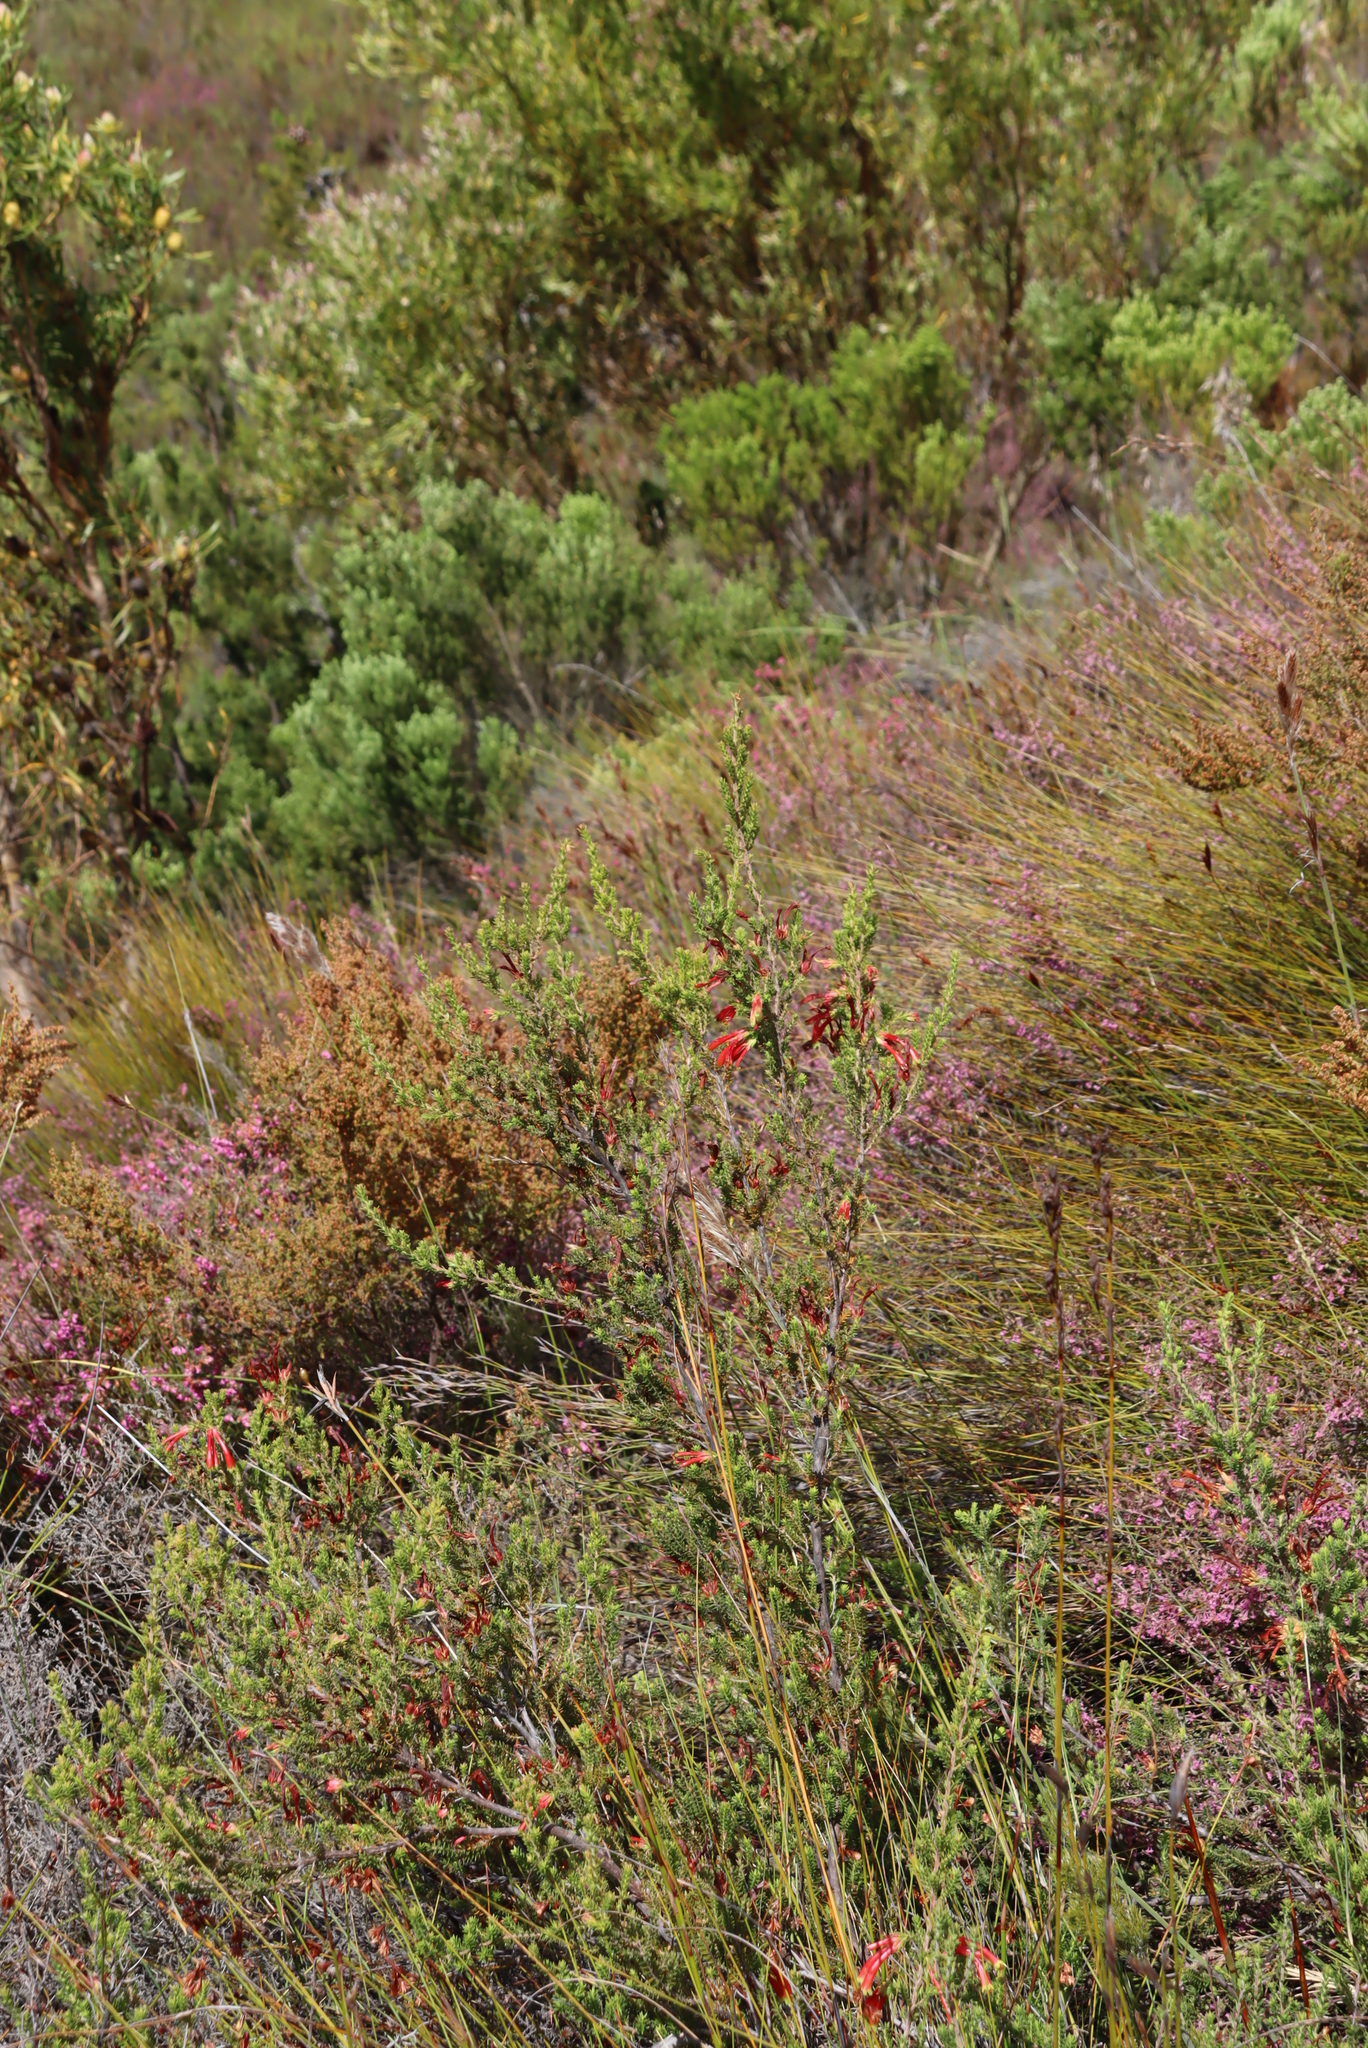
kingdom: Plantae
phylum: Tracheophyta
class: Magnoliopsida
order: Ericales
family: Ericaceae
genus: Erica
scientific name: Erica discolor
